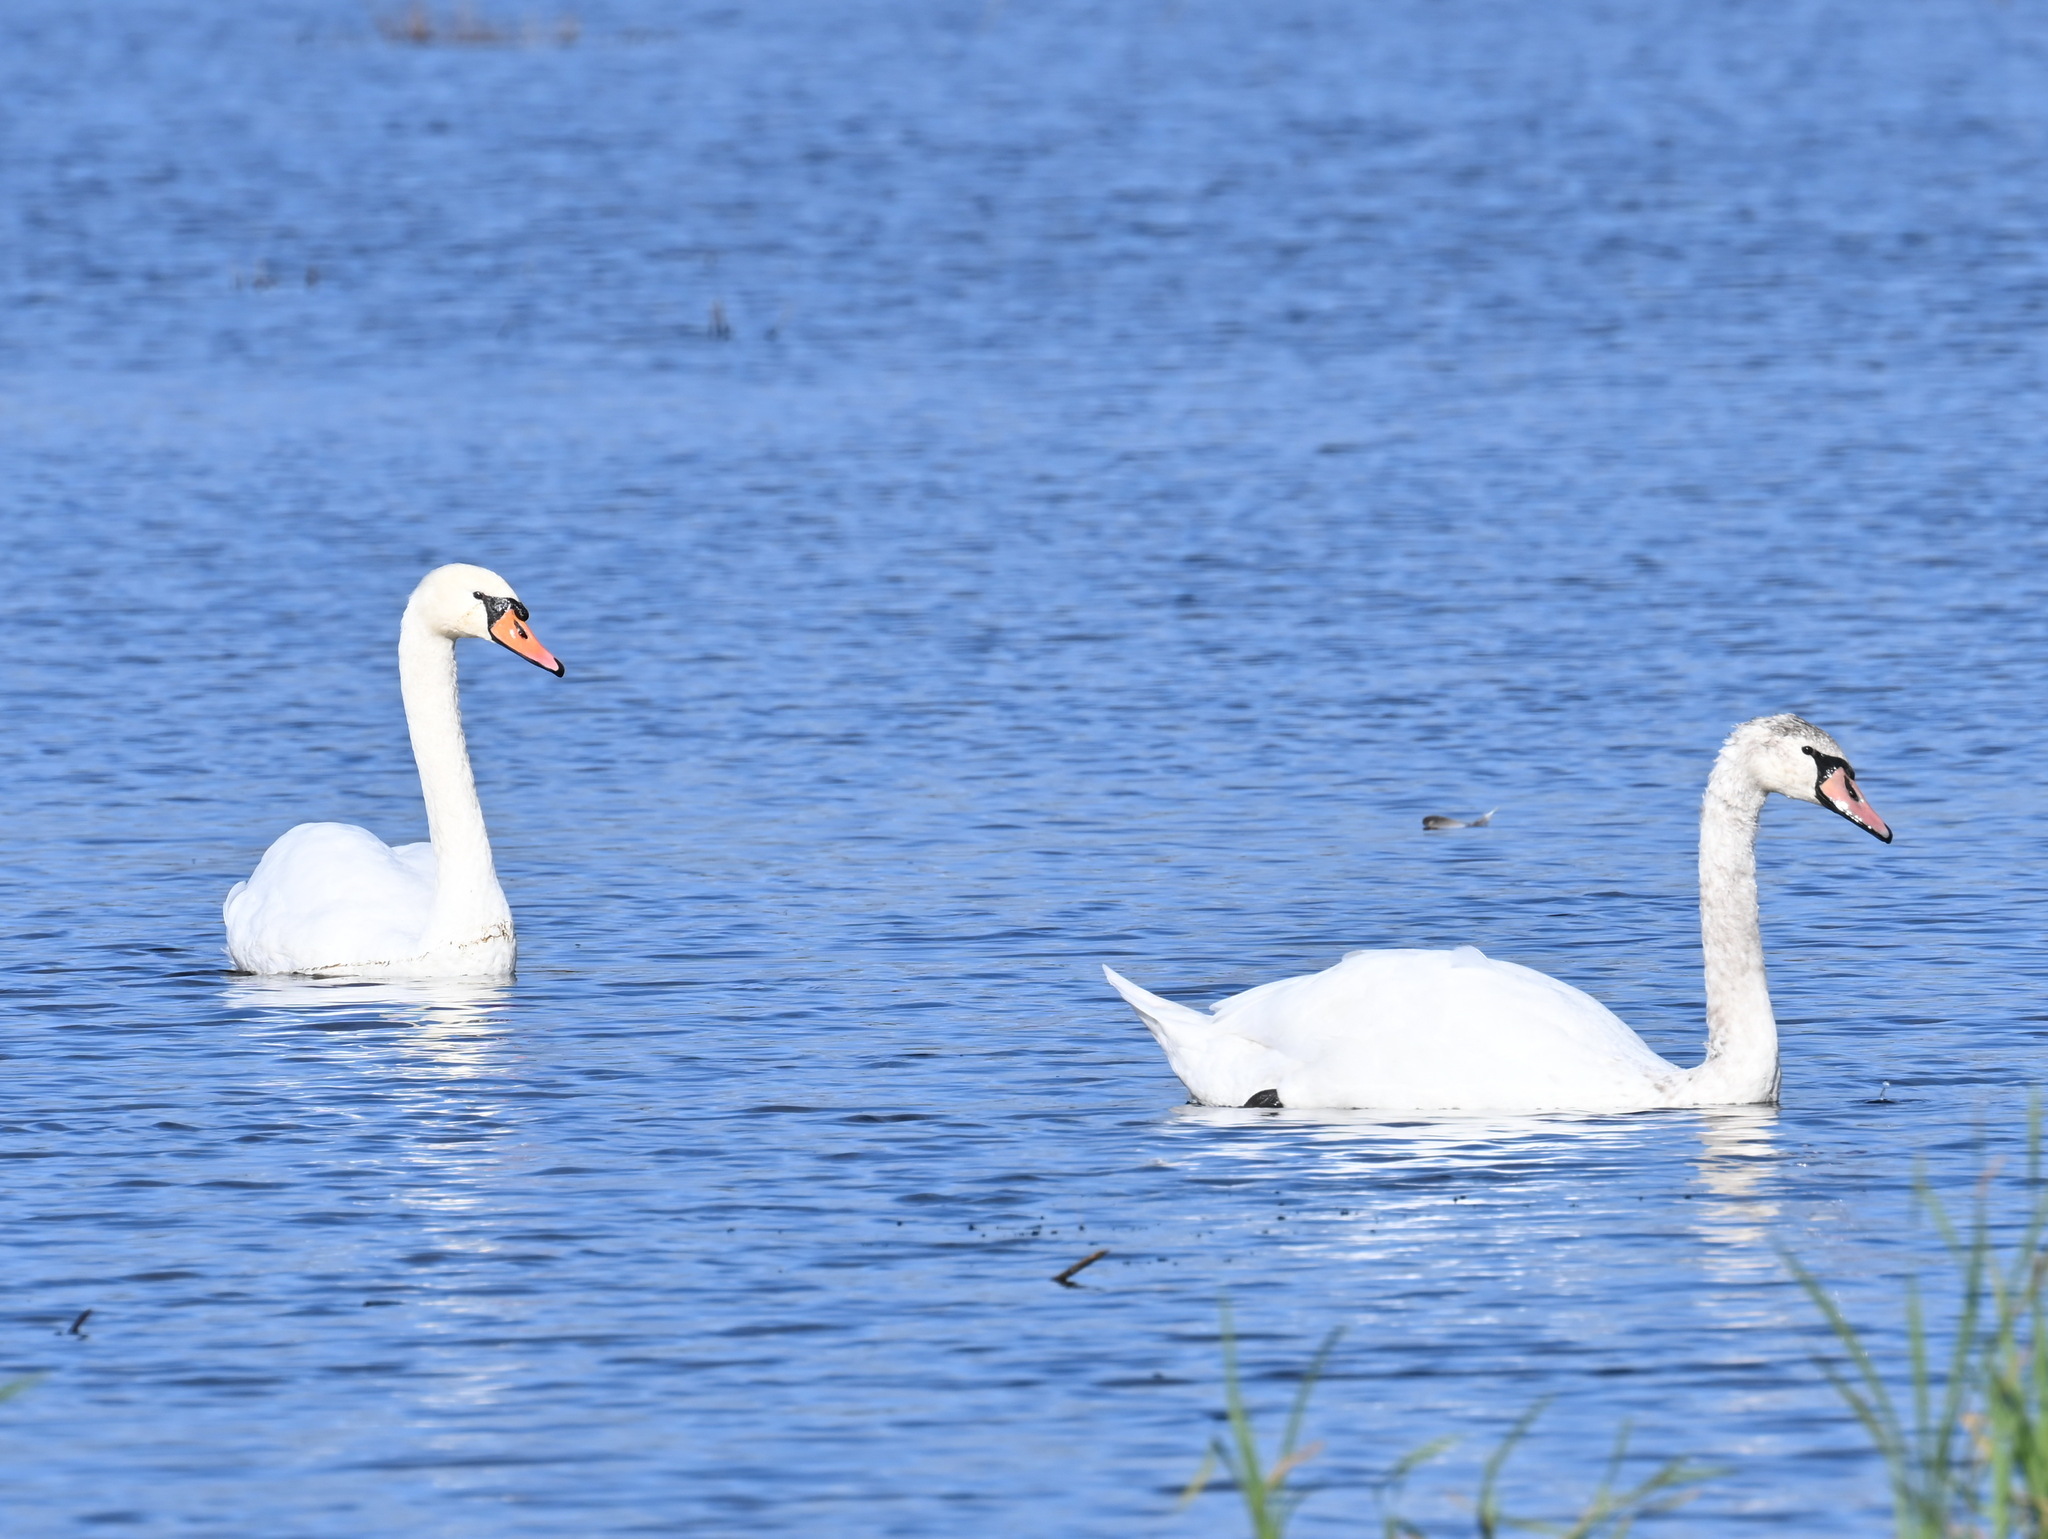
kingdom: Animalia
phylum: Chordata
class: Aves
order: Anseriformes
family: Anatidae
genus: Cygnus
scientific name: Cygnus olor
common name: Mute swan
